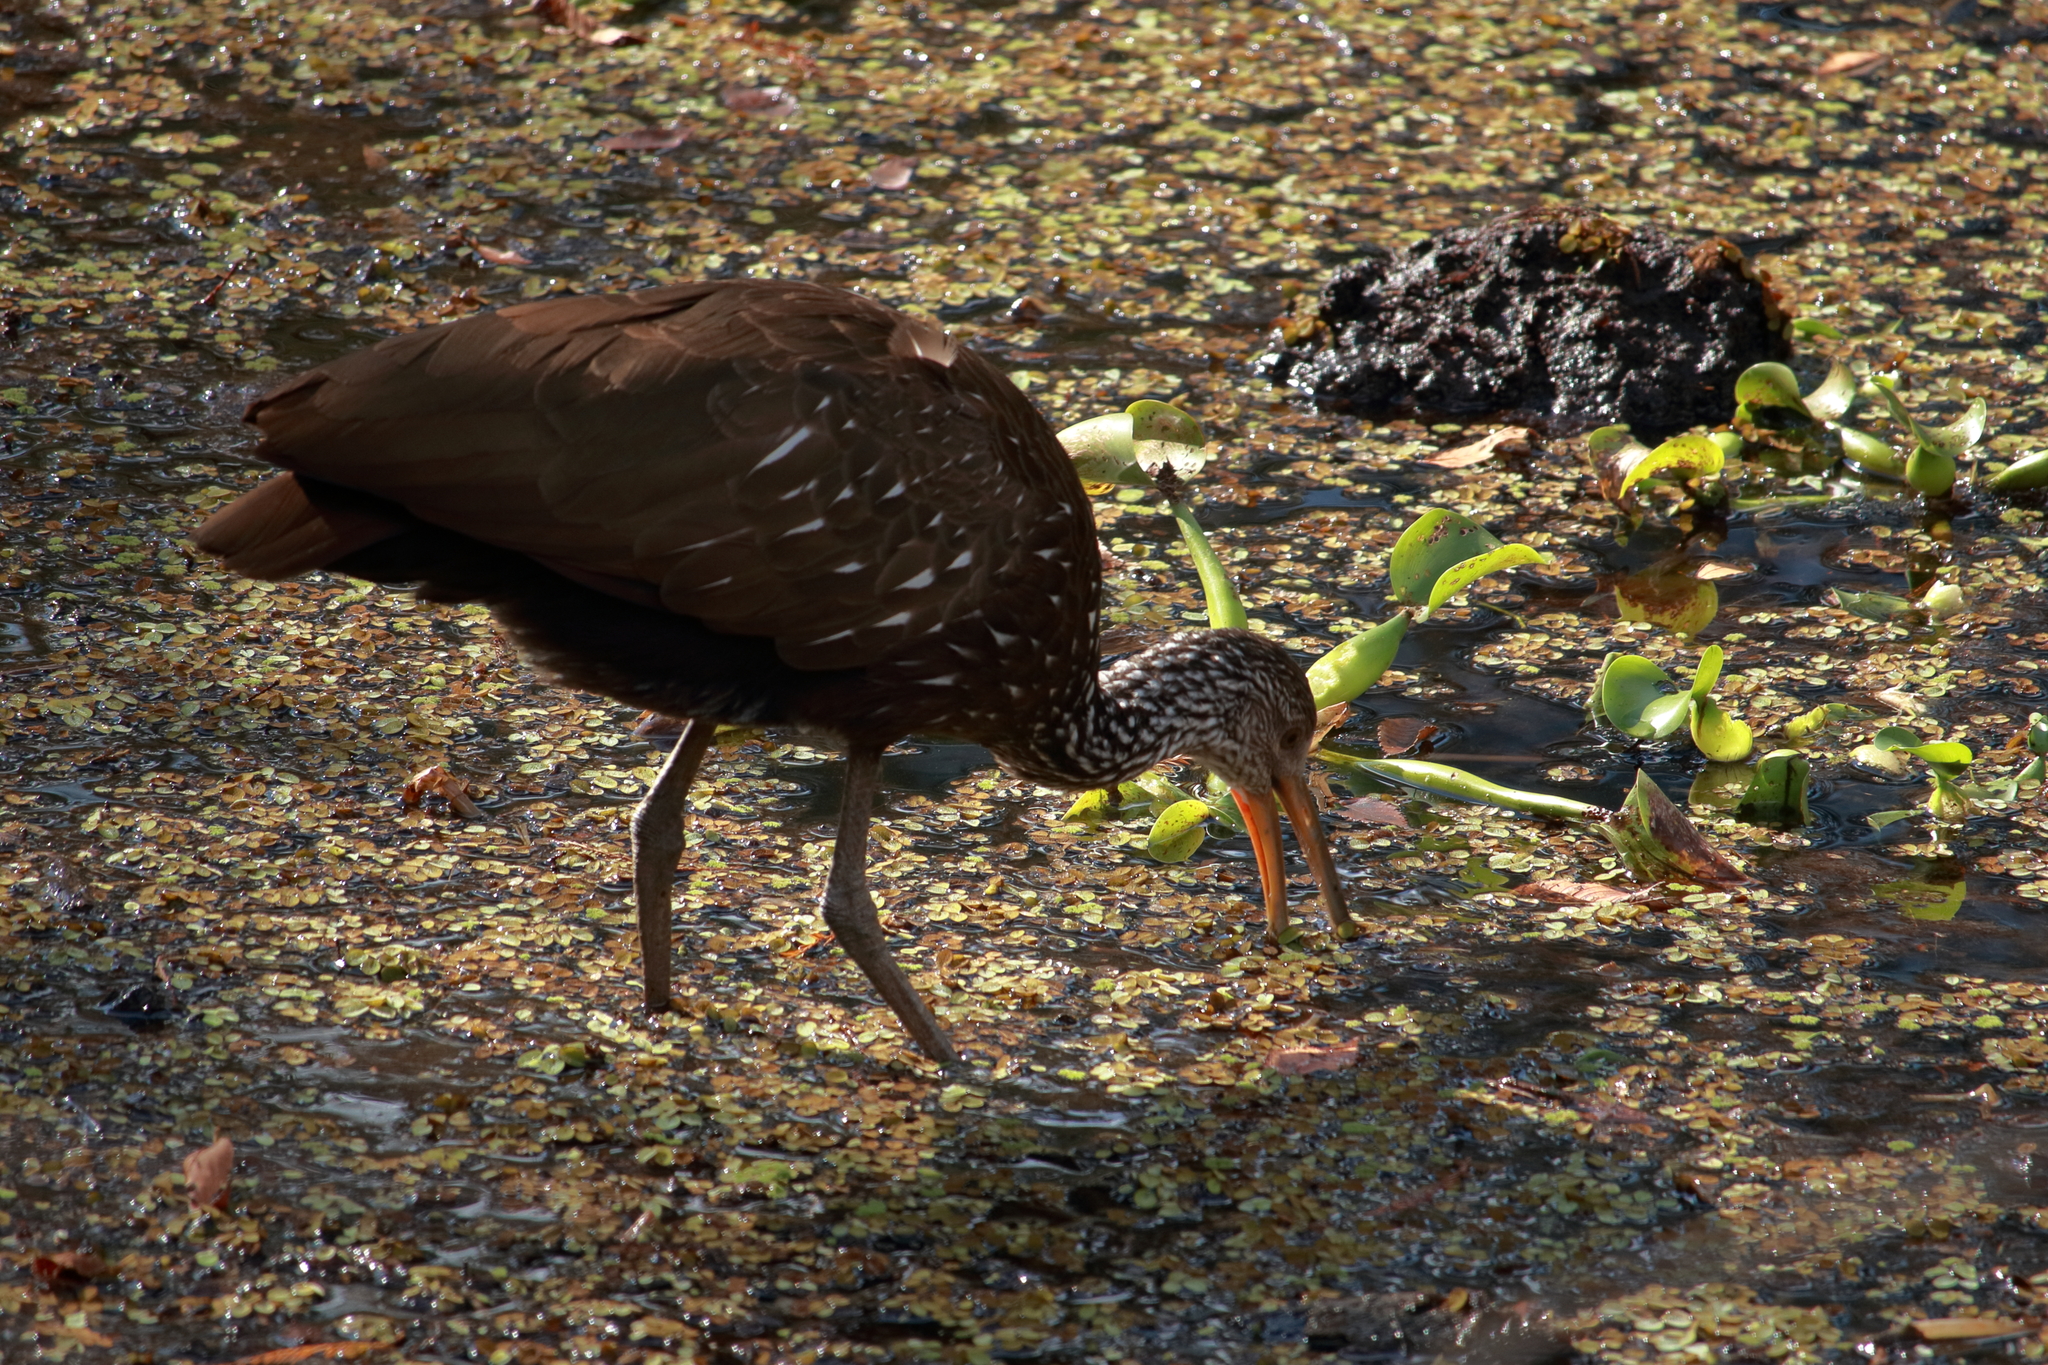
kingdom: Animalia
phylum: Chordata
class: Aves
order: Gruiformes
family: Aramidae
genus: Aramus
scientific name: Aramus guarauna
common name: Limpkin
